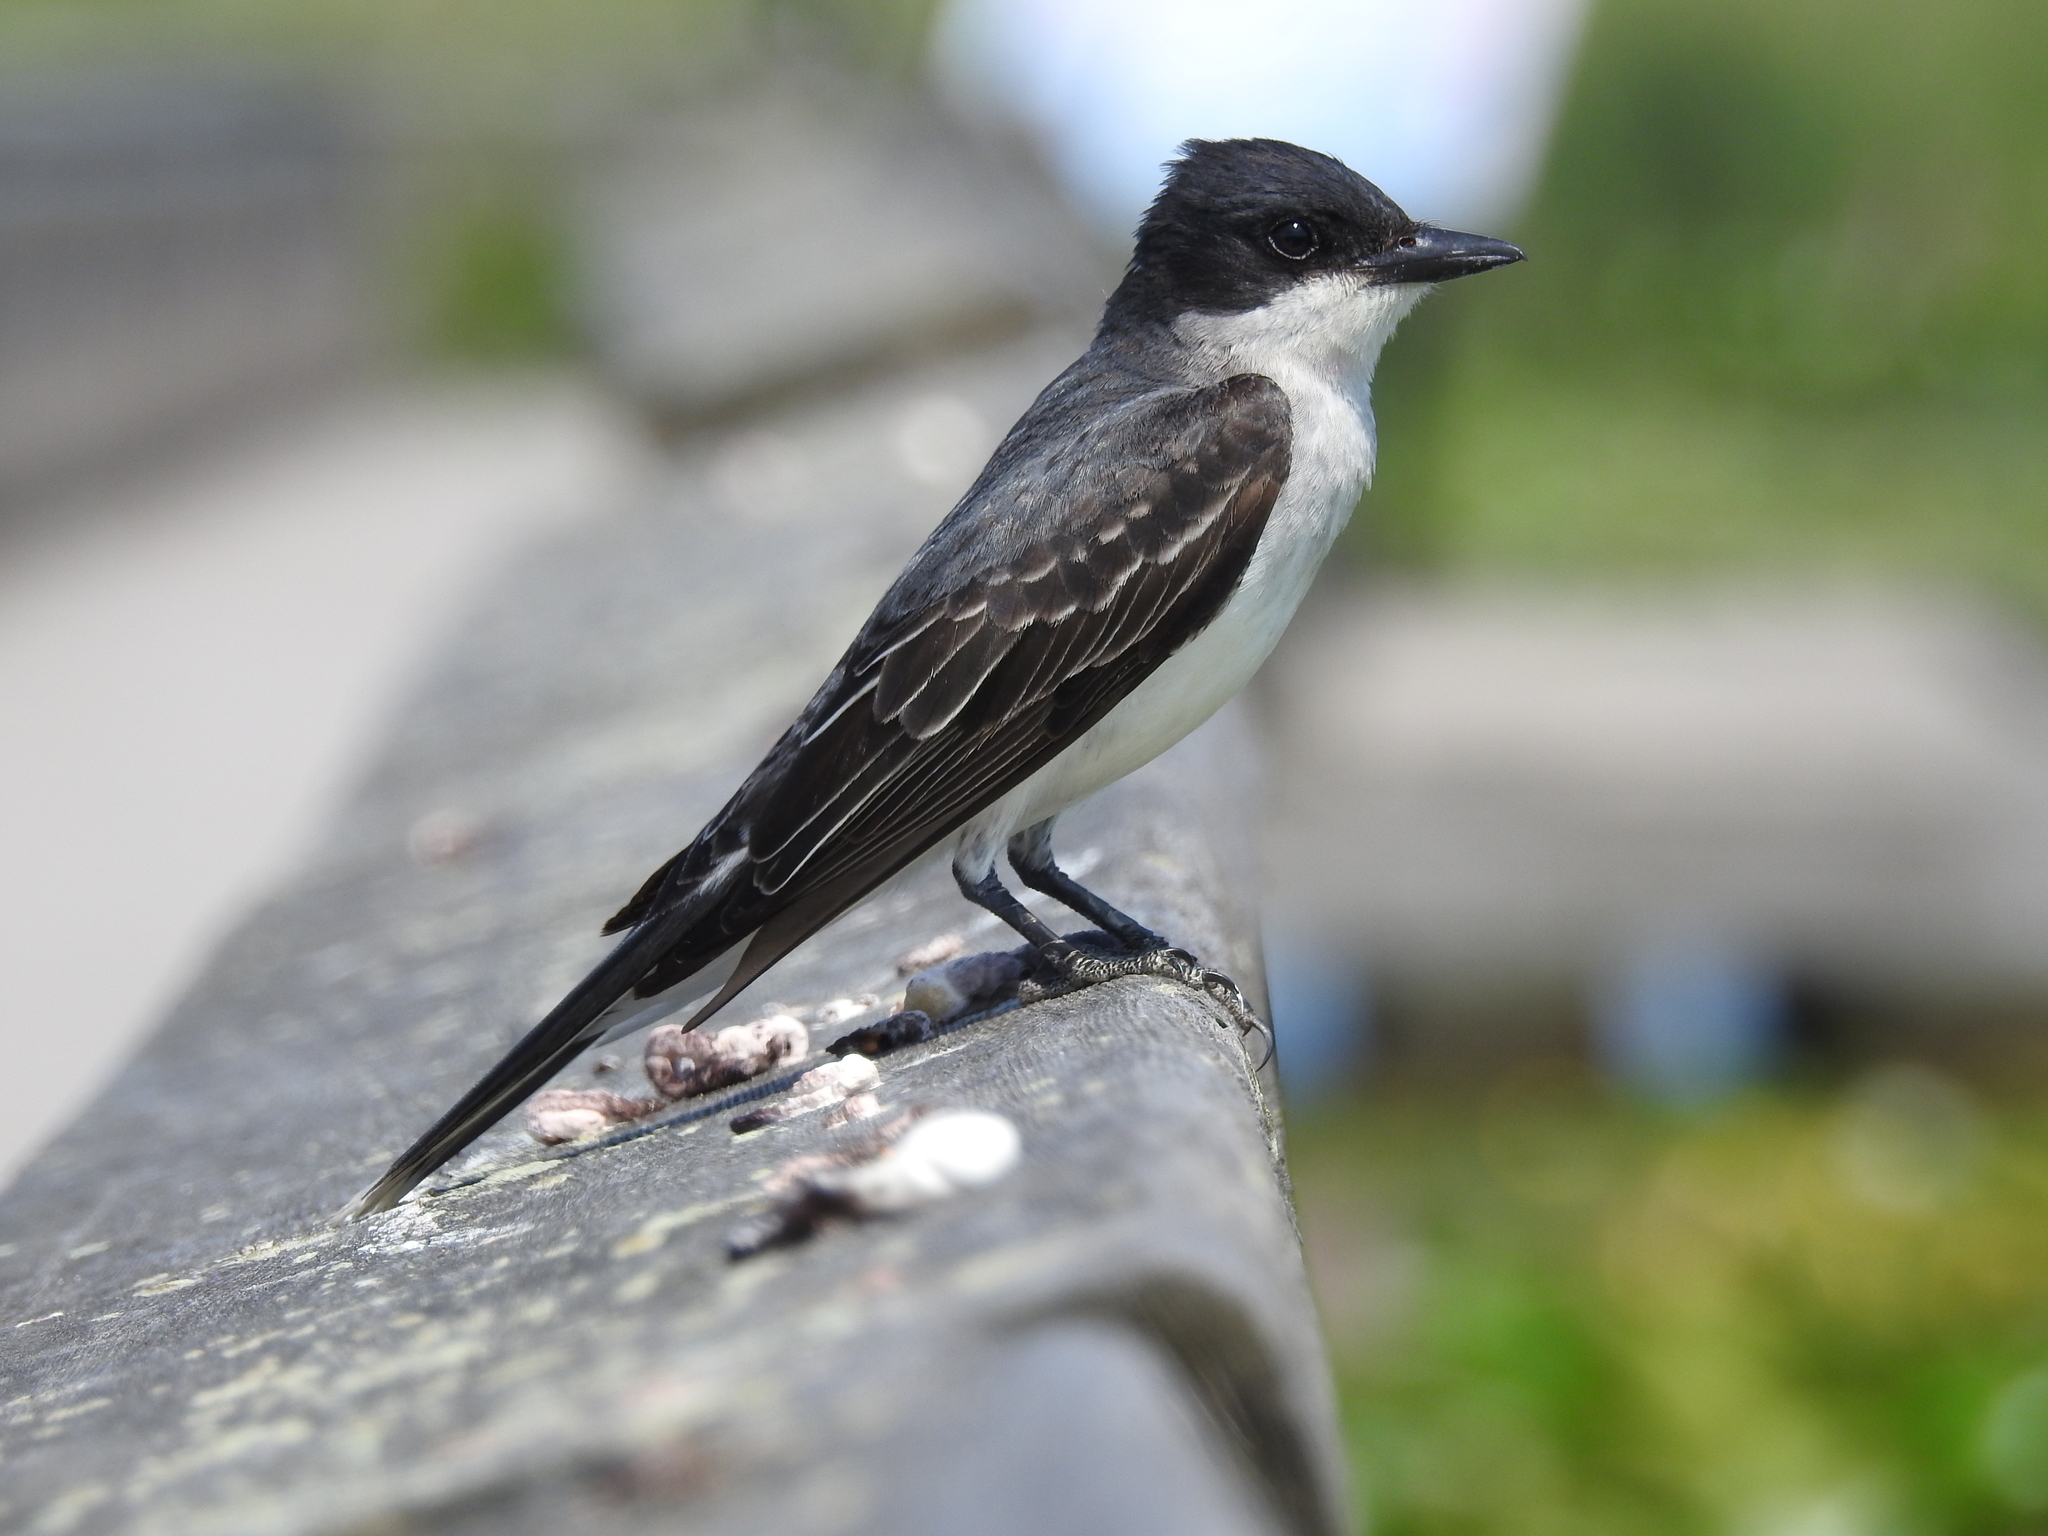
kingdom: Animalia
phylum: Chordata
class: Aves
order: Passeriformes
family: Tyrannidae
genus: Tyrannus
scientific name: Tyrannus tyrannus
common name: Eastern kingbird
